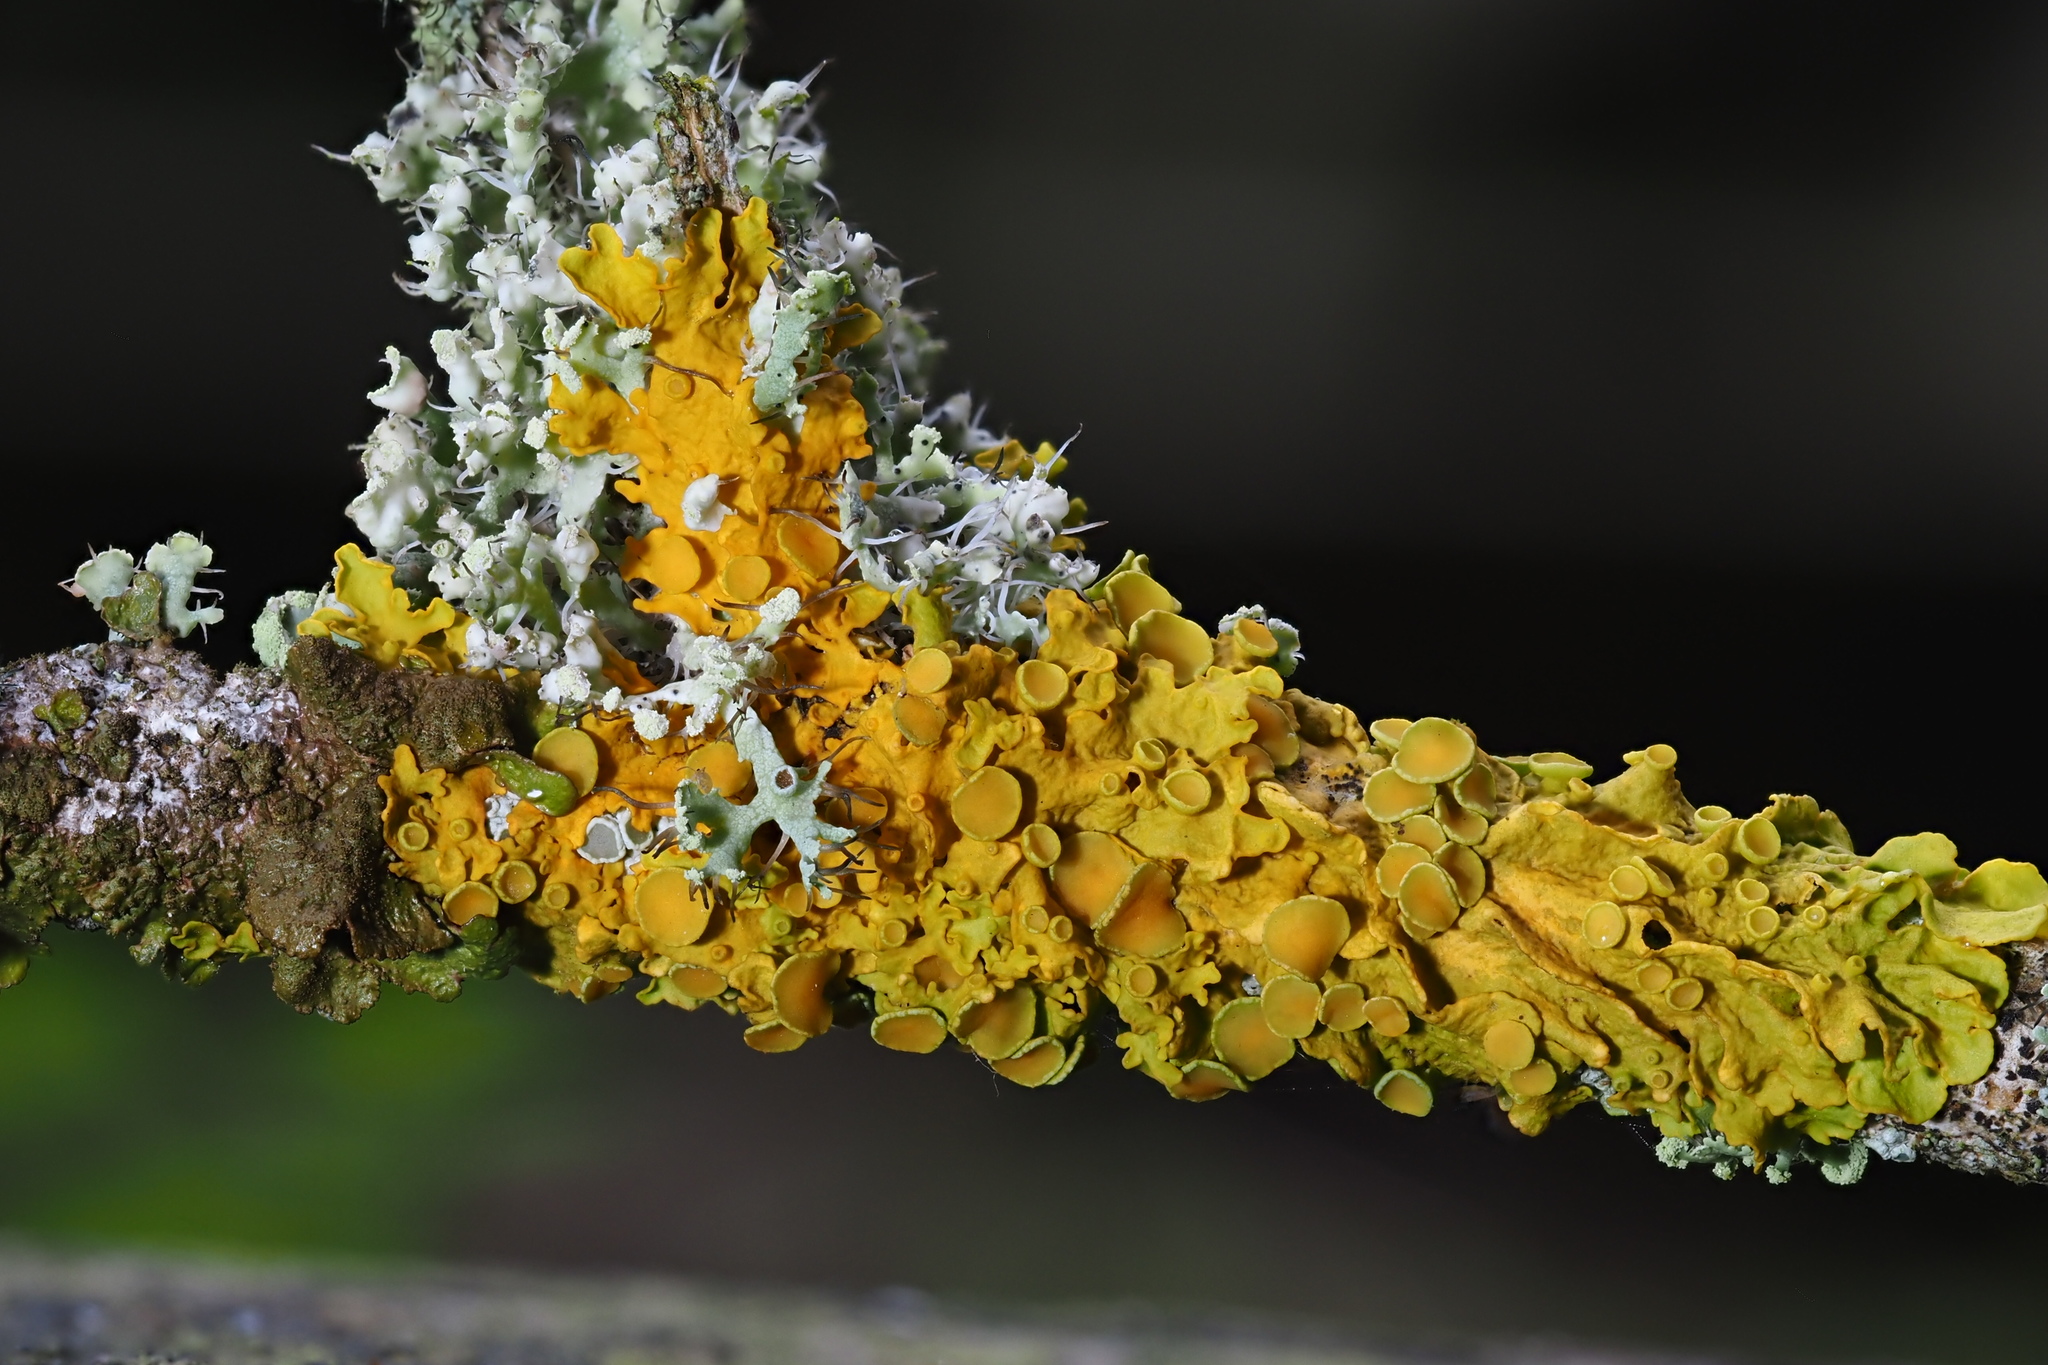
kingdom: Fungi
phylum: Ascomycota
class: Lecanoromycetes
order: Teloschistales
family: Teloschistaceae
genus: Xanthoria
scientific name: Xanthoria parietina
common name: Common orange lichen
